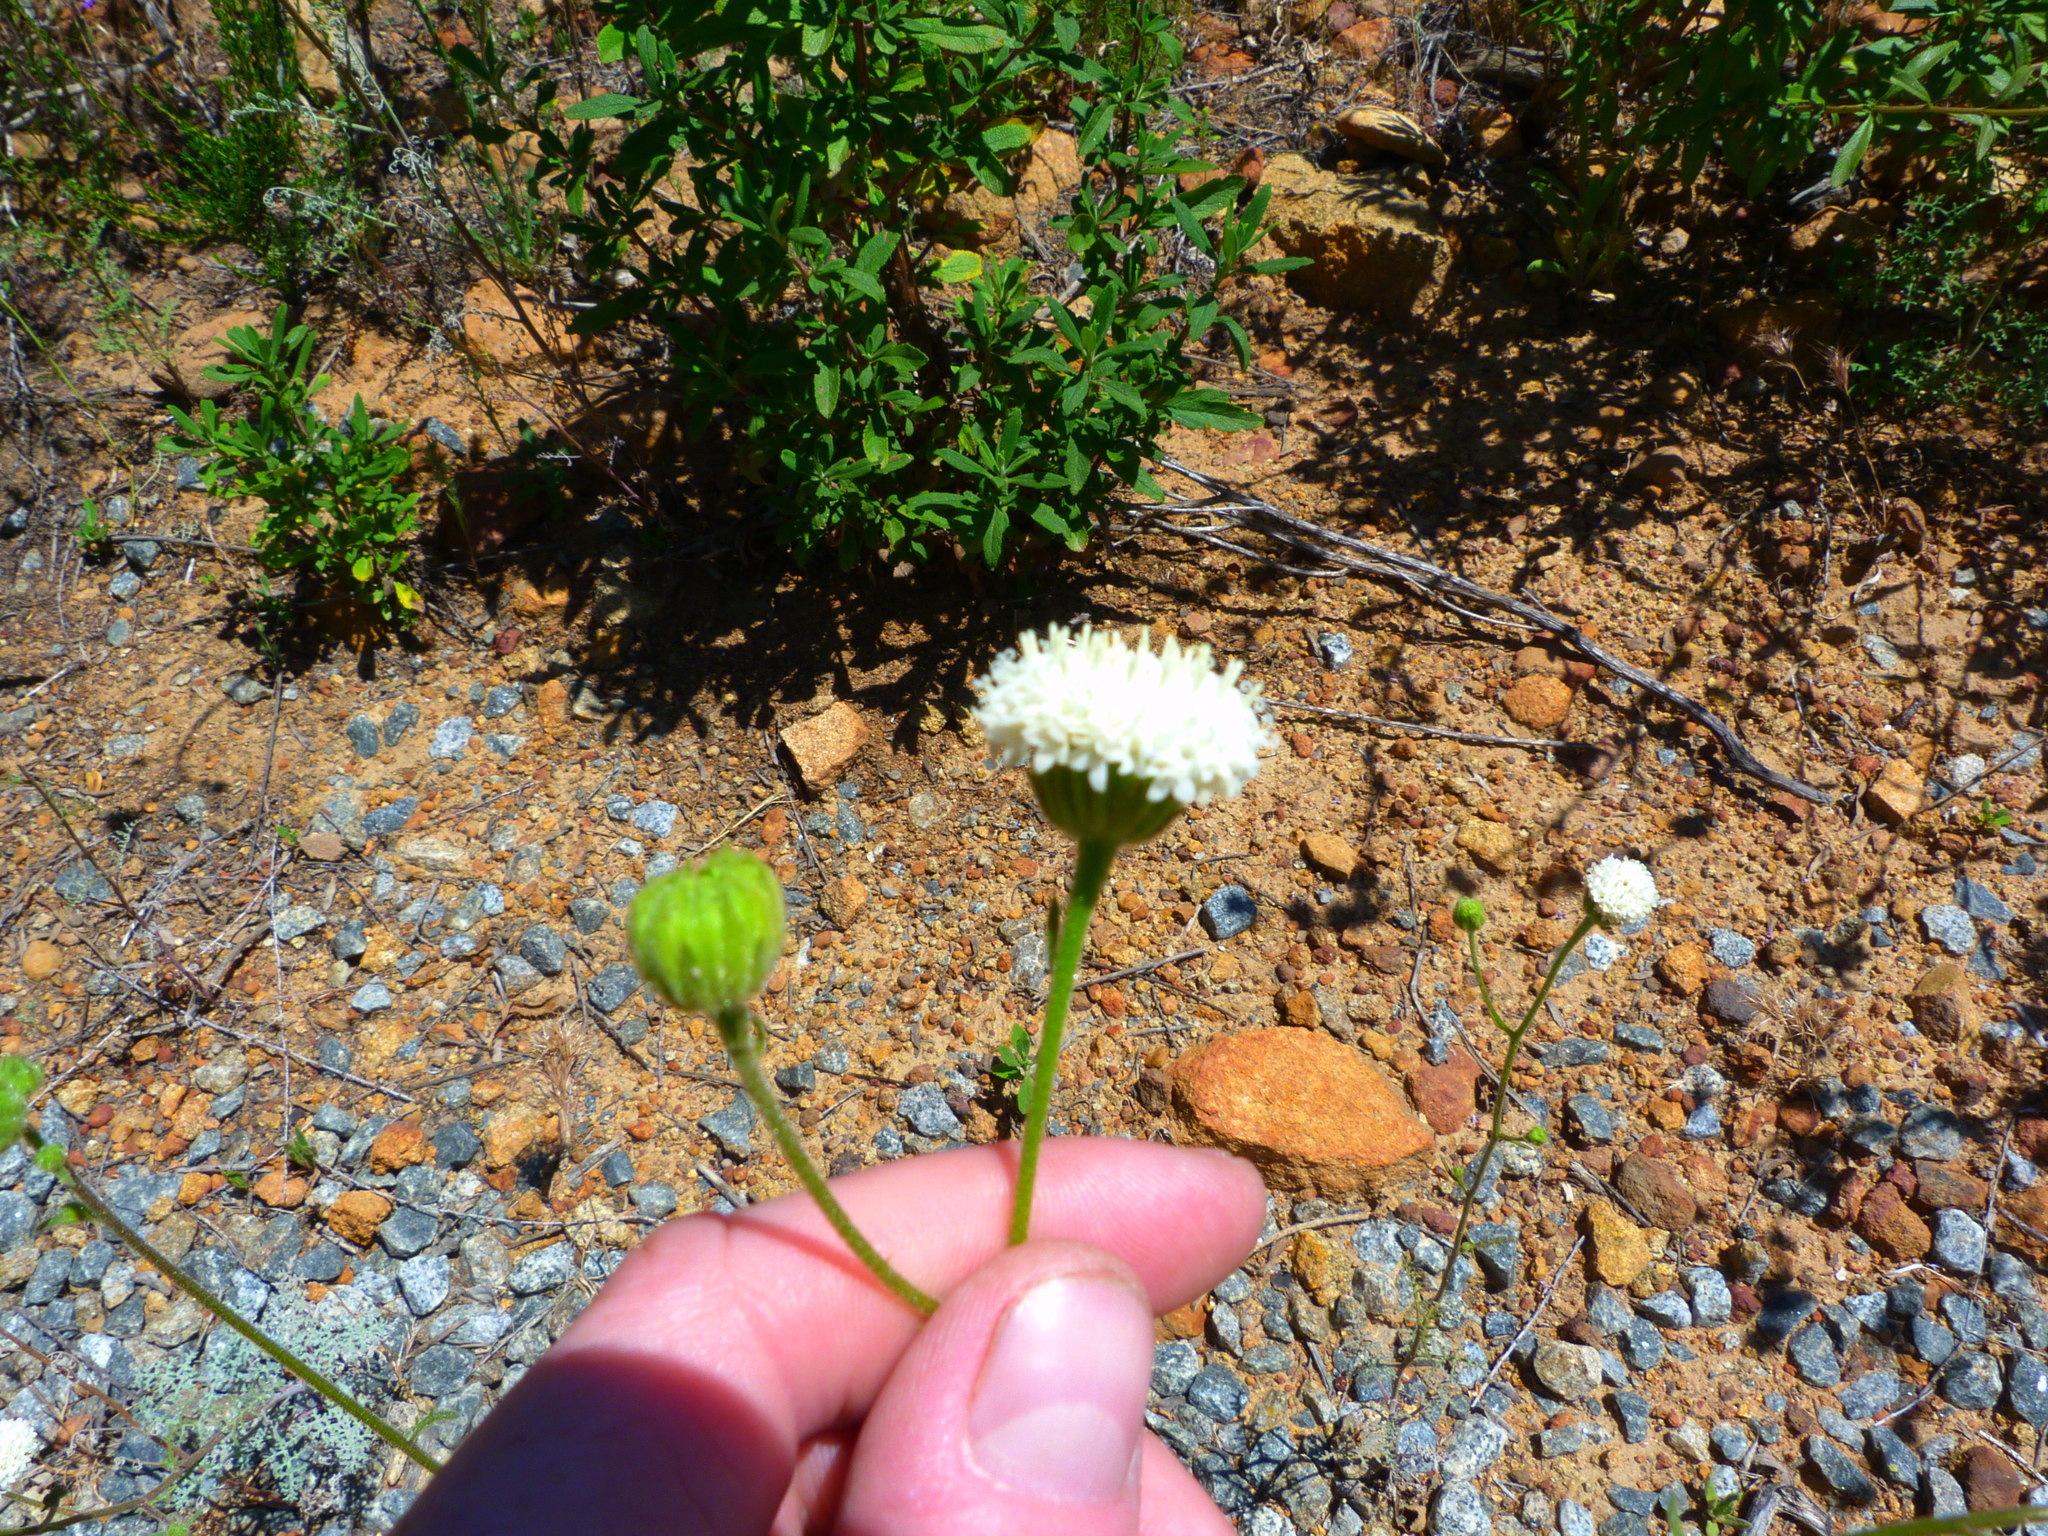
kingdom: Plantae
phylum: Tracheophyta
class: Magnoliopsida
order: Asterales
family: Asteraceae
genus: Chaenactis
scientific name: Chaenactis artemisiifolia
